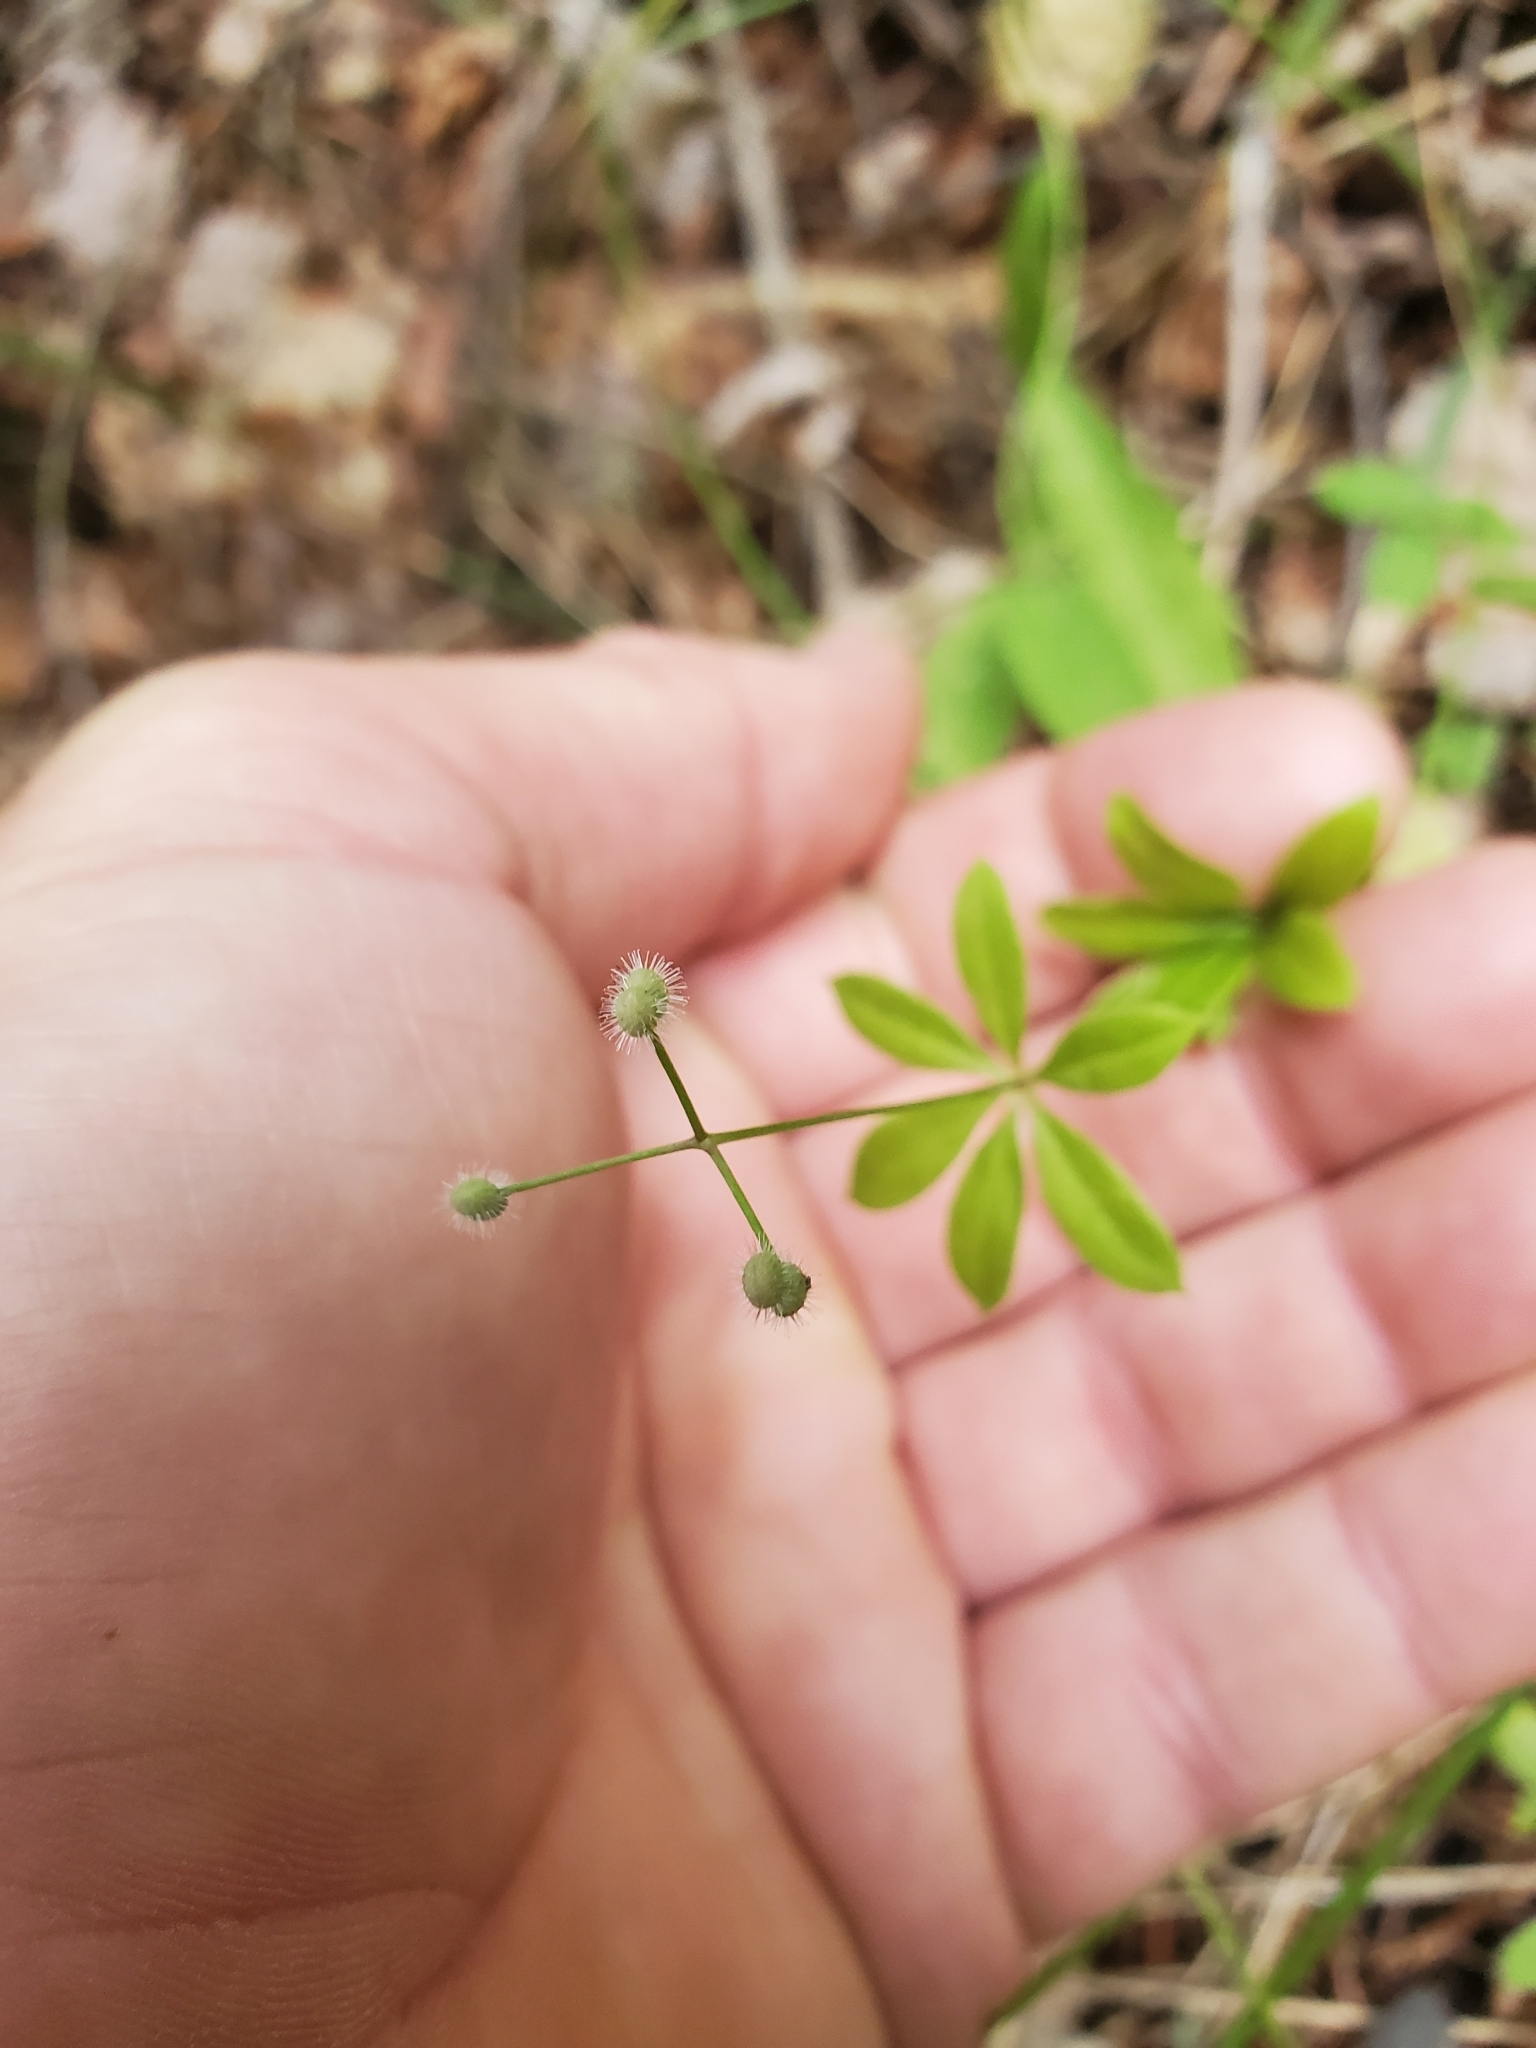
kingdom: Plantae
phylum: Tracheophyta
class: Magnoliopsida
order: Gentianales
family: Rubiaceae
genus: Galium
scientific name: Galium triflorum
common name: Fragrant bedstraw
